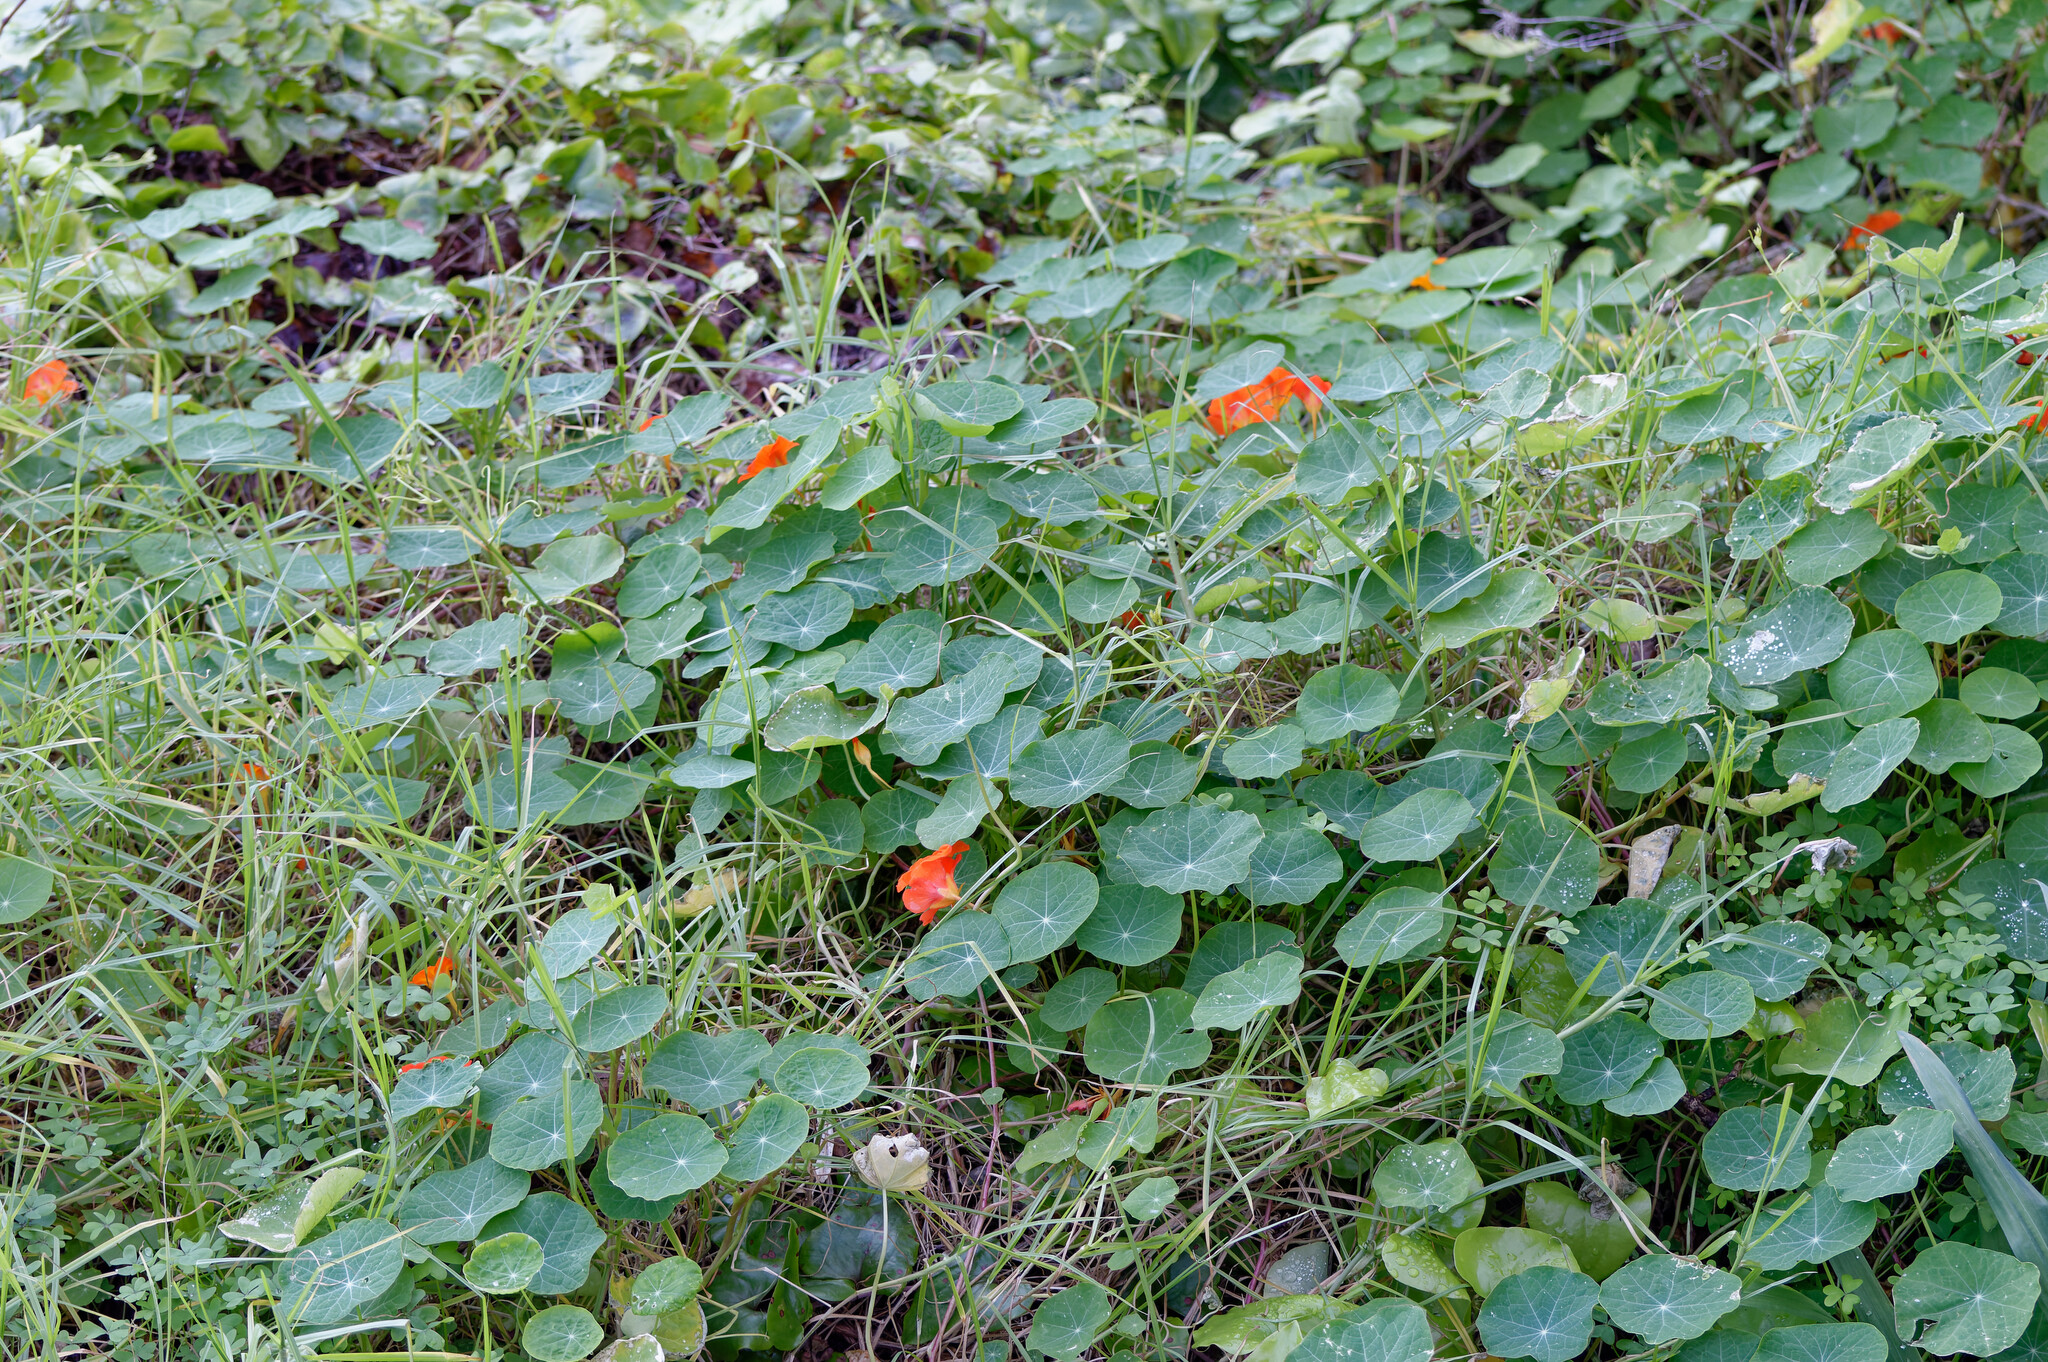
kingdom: Plantae
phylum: Tracheophyta
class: Magnoliopsida
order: Brassicales
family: Tropaeolaceae
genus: Tropaeolum
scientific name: Tropaeolum majus
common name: Nasturtium
